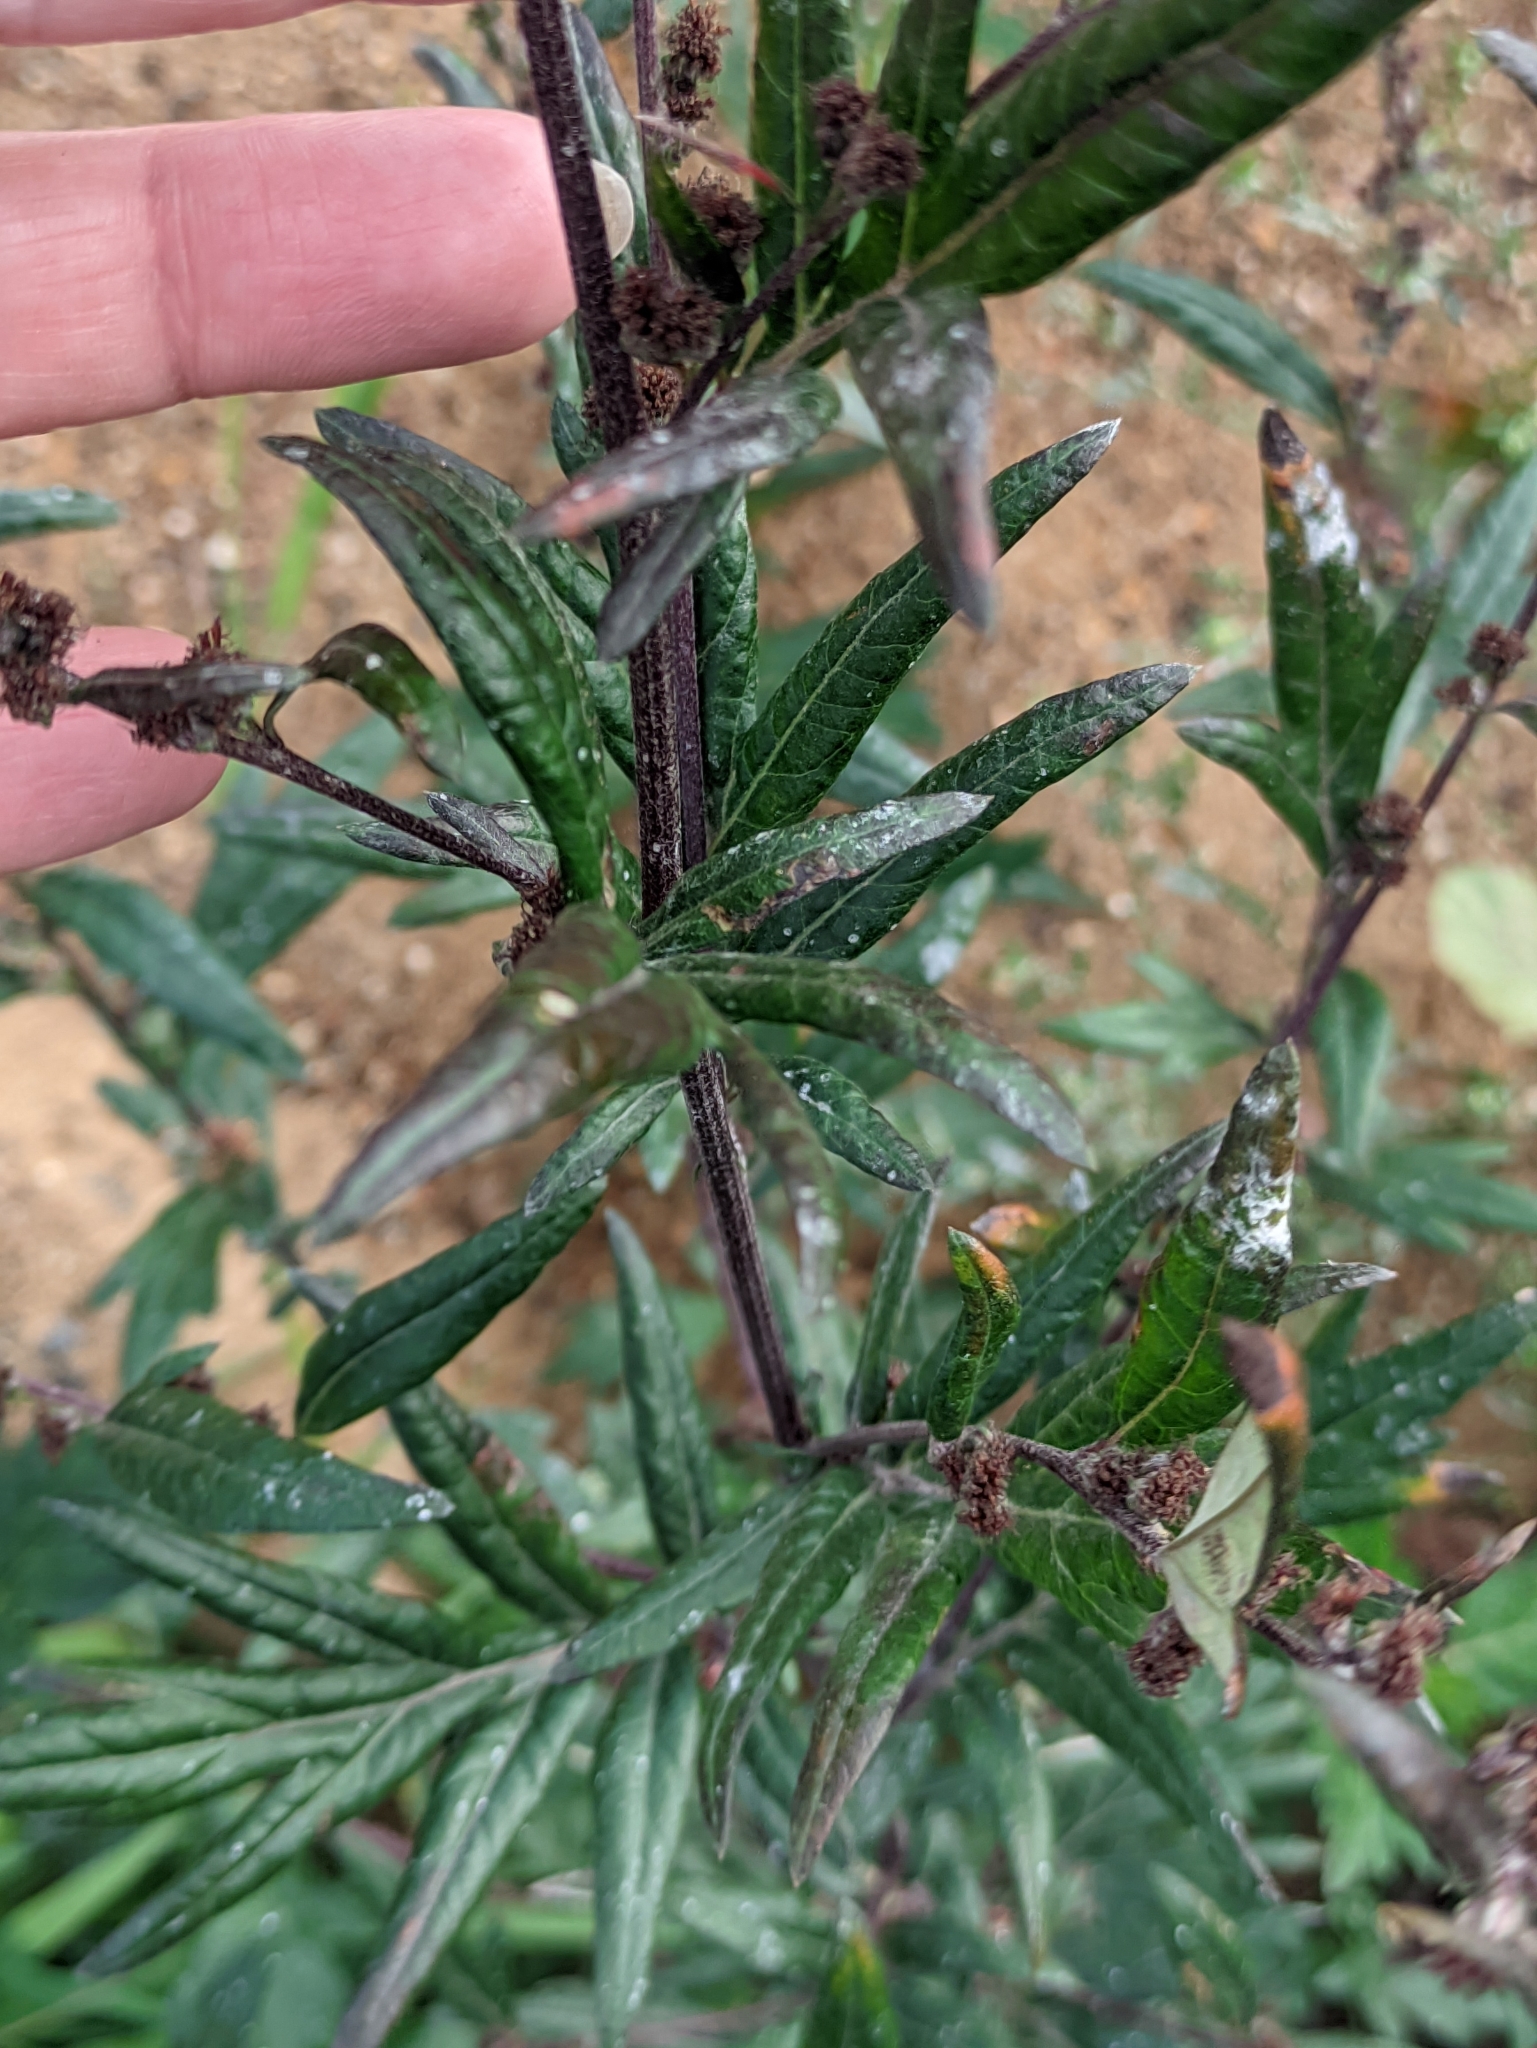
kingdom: Plantae
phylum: Tracheophyta
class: Magnoliopsida
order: Asterales
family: Asteraceae
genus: Artemisia
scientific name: Artemisia vulgaris
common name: Mugwort
